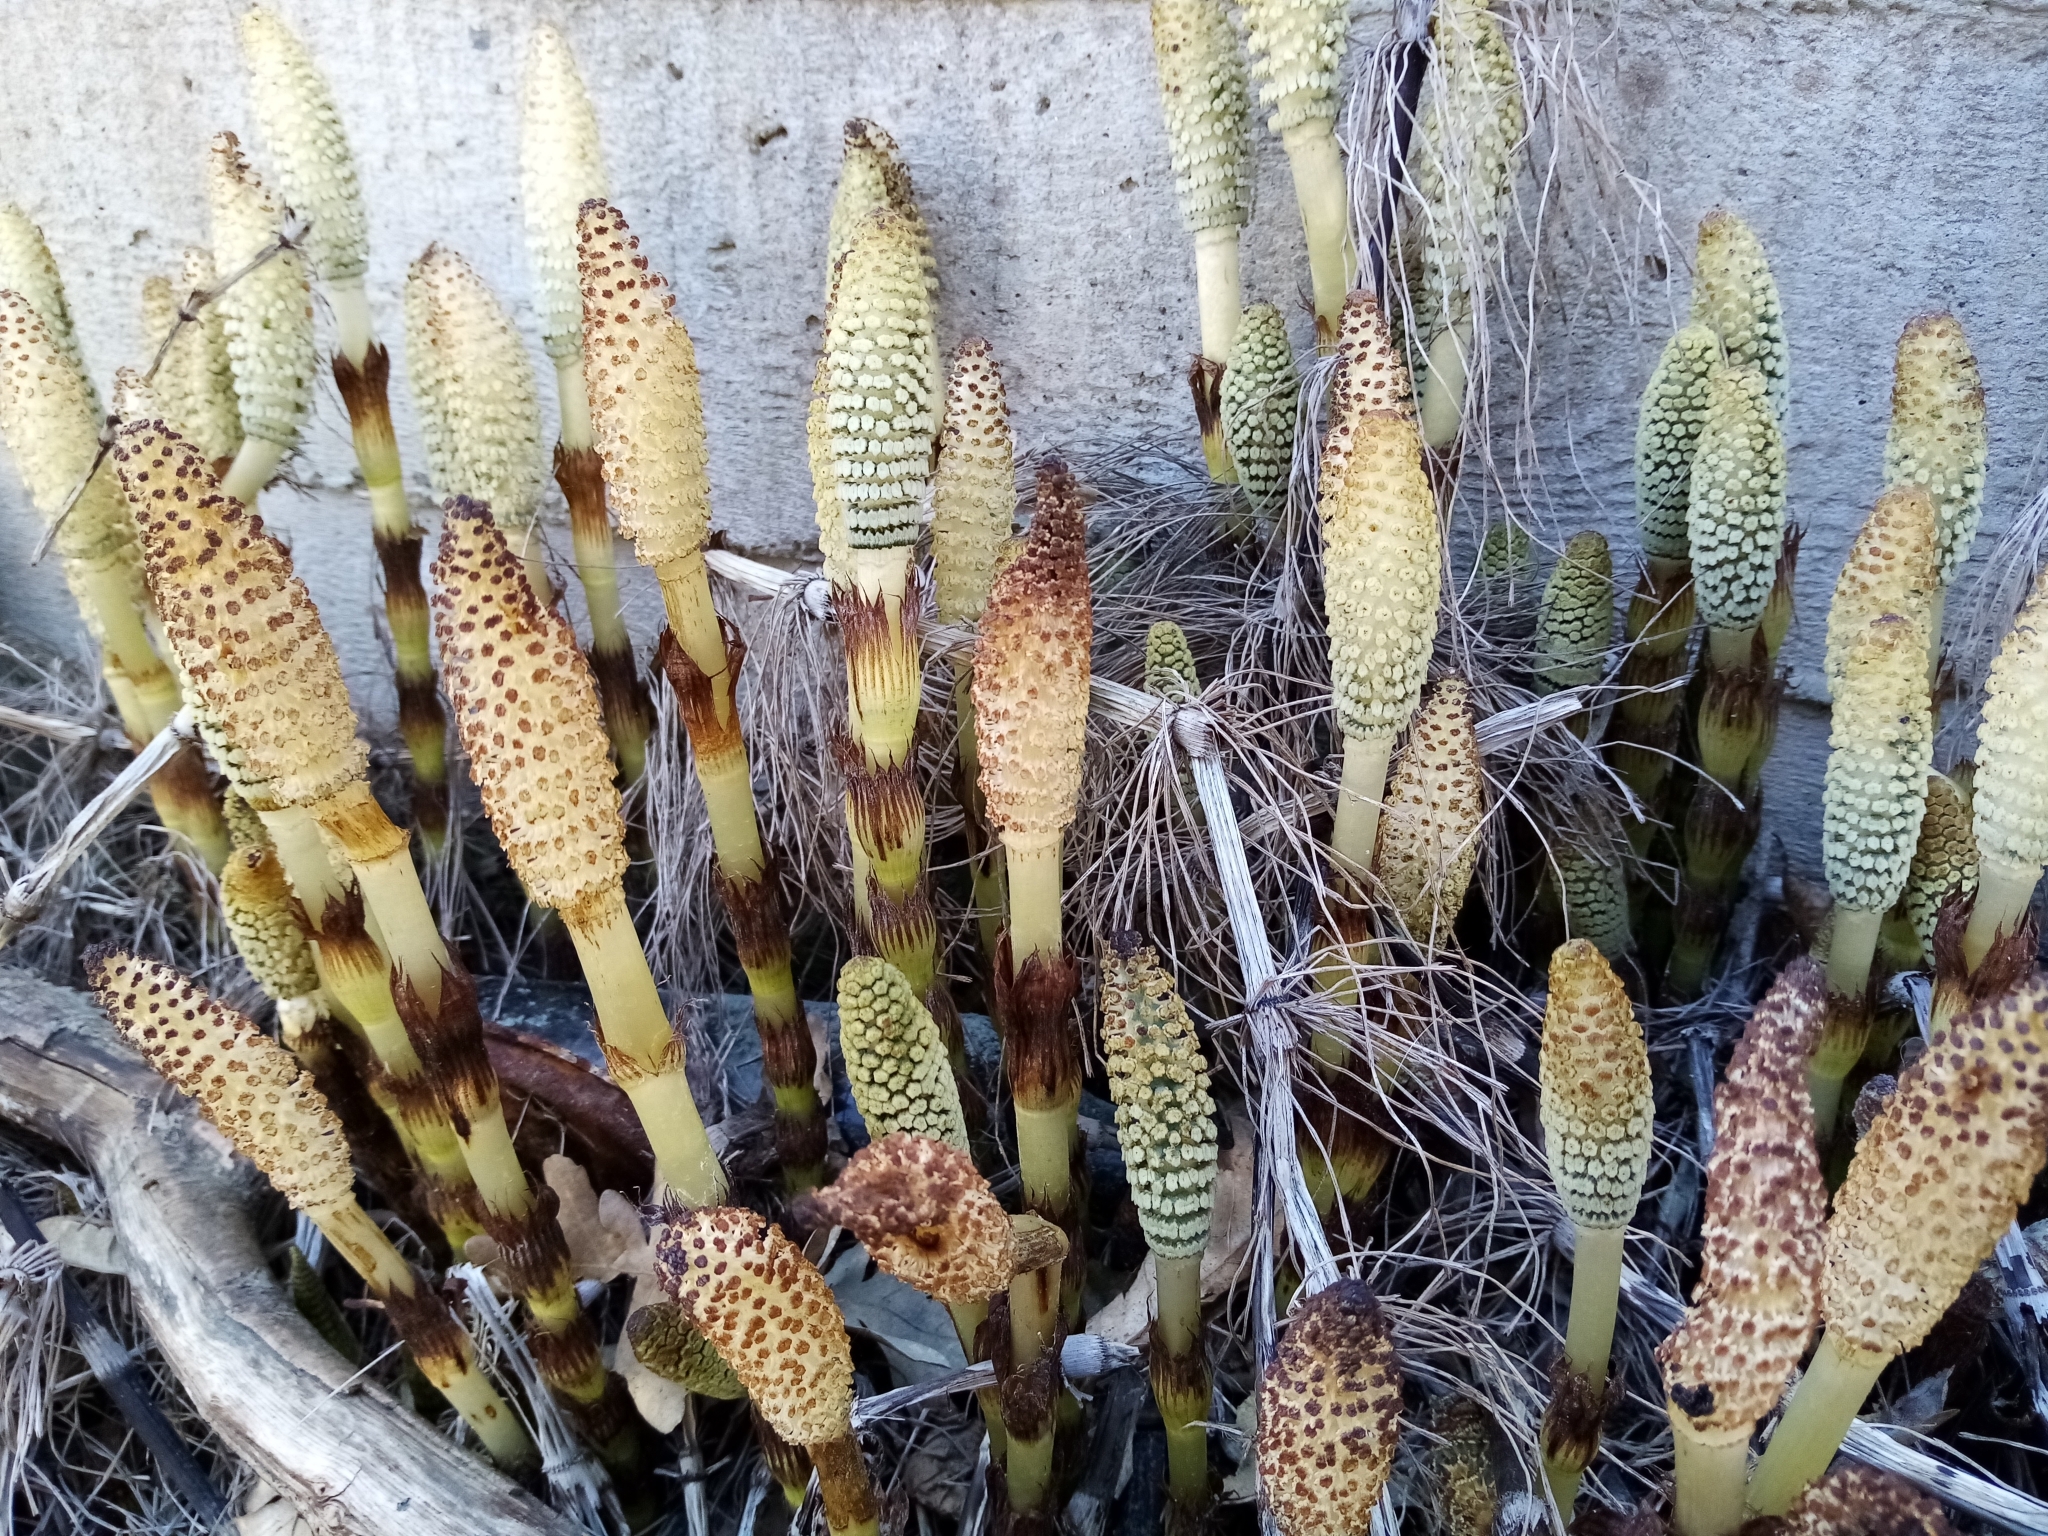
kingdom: Plantae
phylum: Tracheophyta
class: Polypodiopsida
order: Equisetales
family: Equisetaceae
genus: Equisetum
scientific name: Equisetum telmateia
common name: Great horsetail
